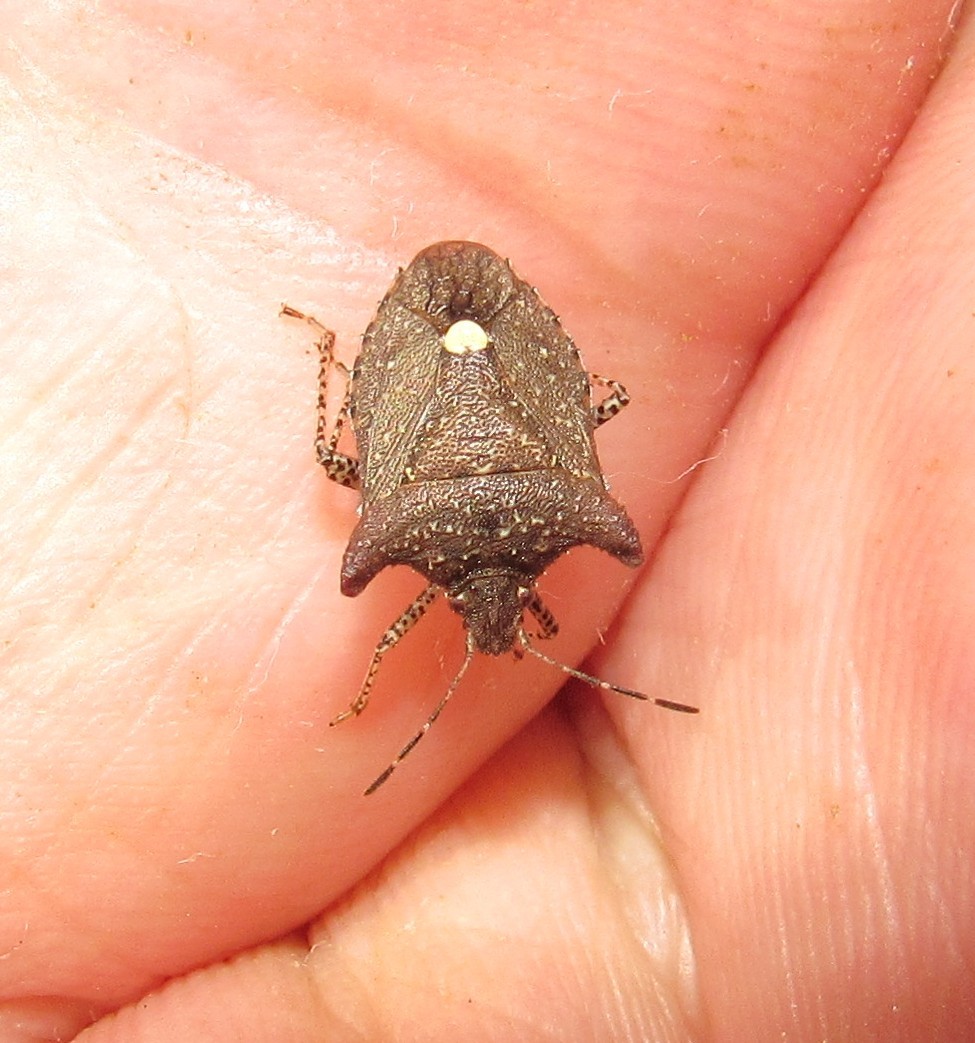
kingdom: Animalia
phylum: Arthropoda
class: Insecta
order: Hemiptera
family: Pentatomidae
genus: Euschistus
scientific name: Euschistus picticornis
